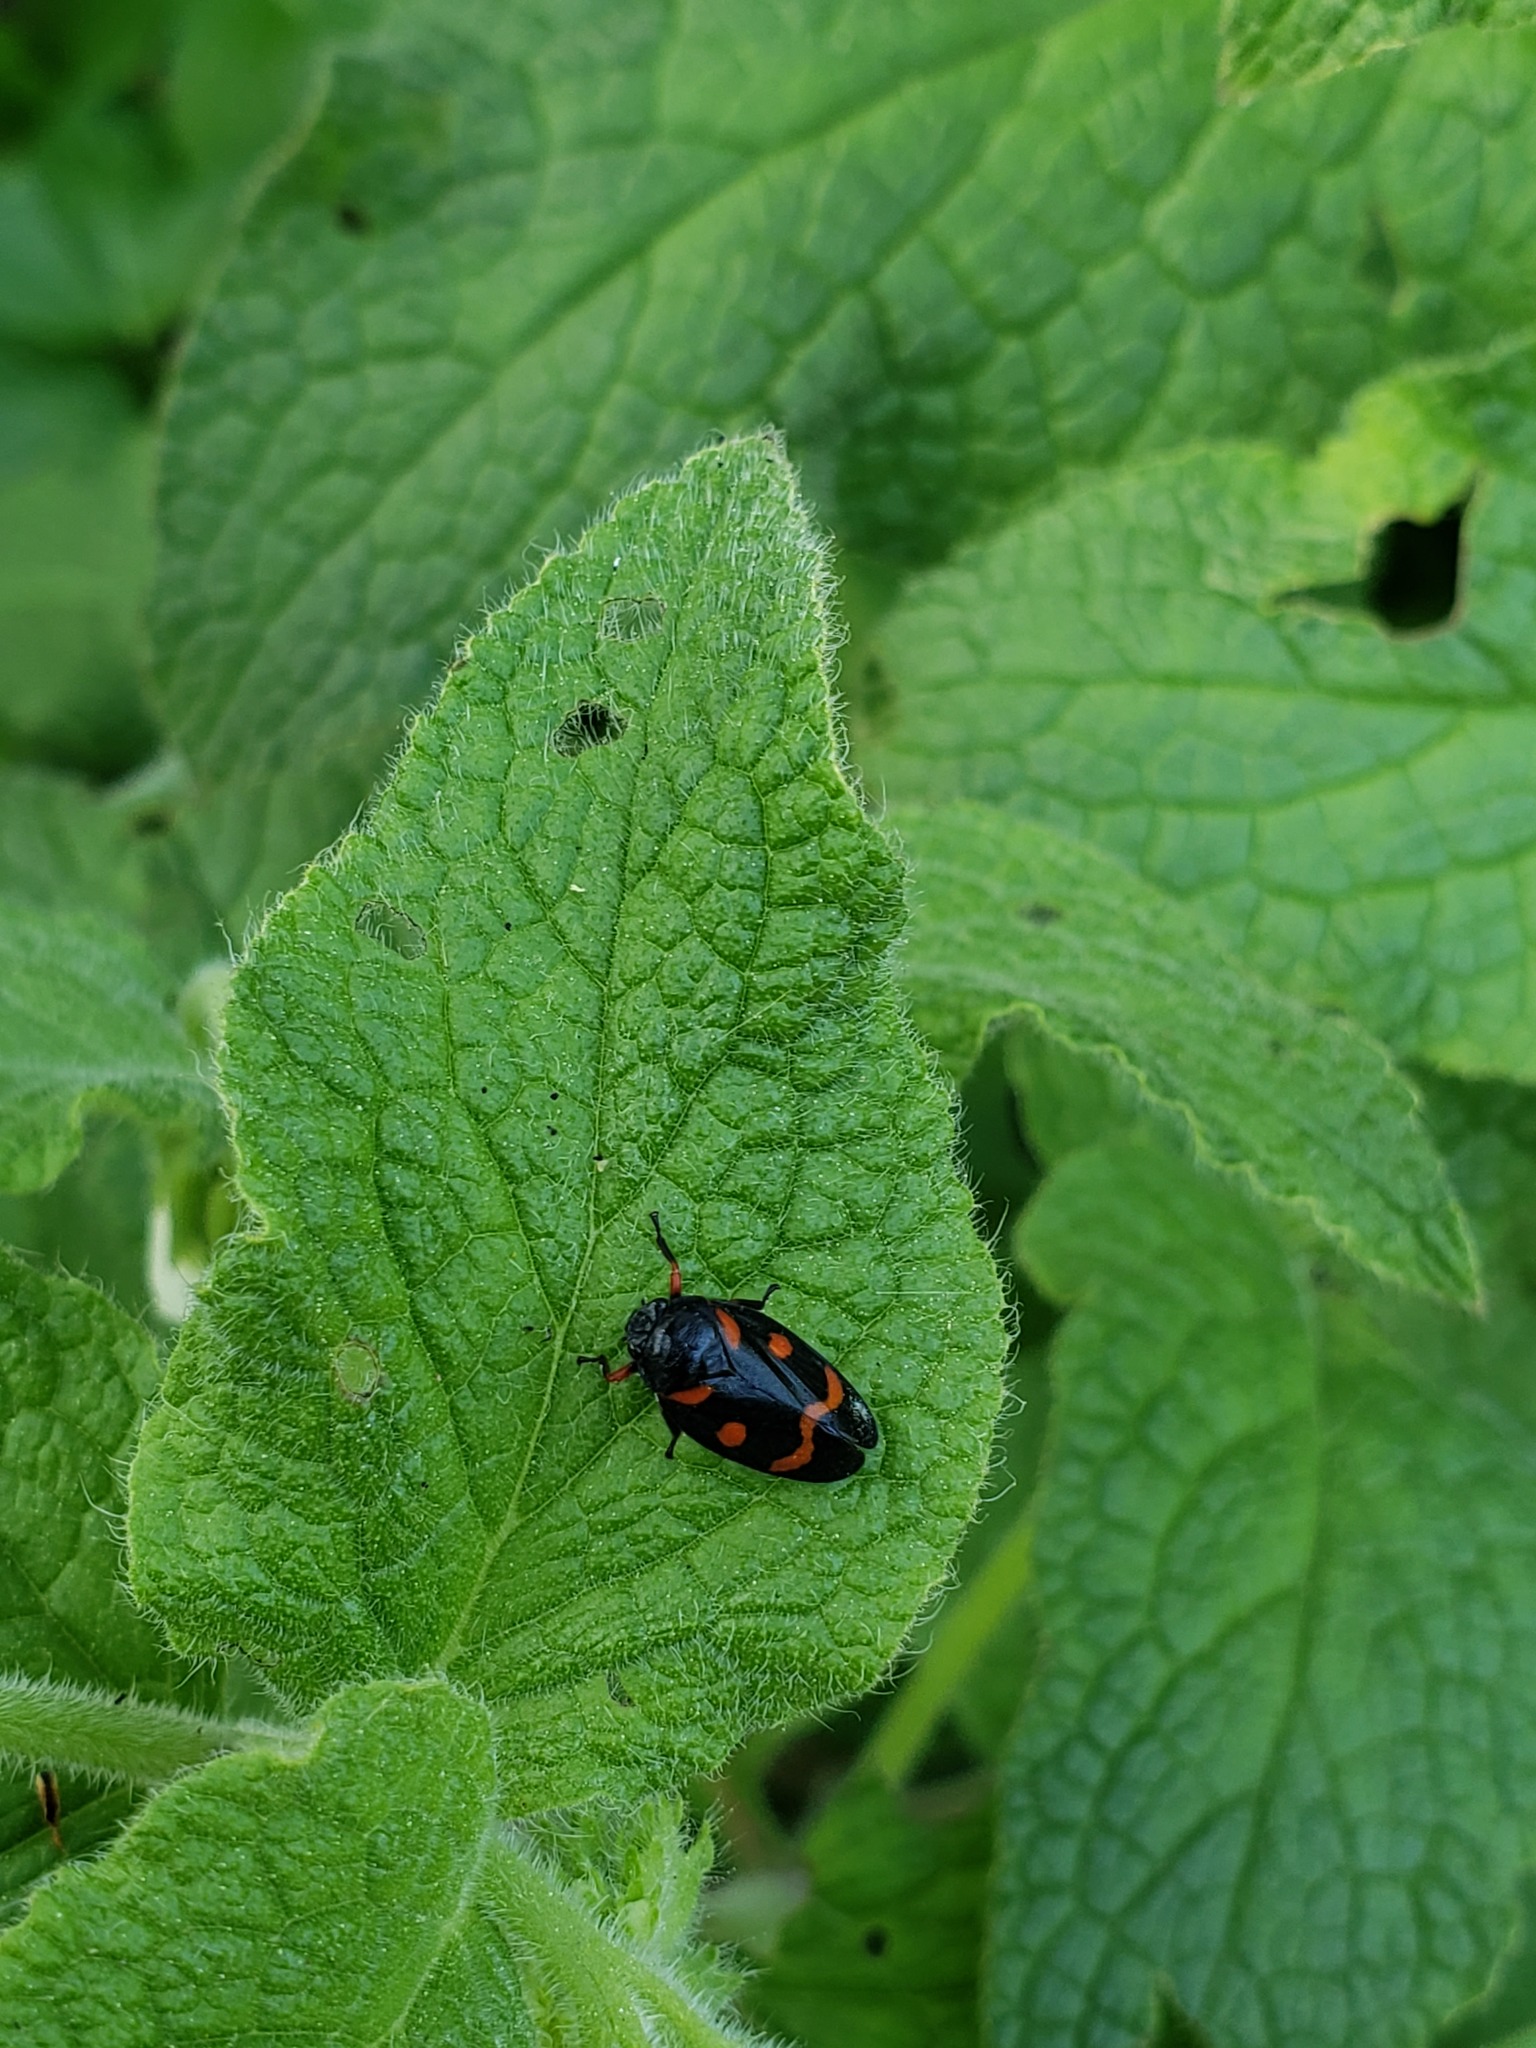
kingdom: Animalia
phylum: Arthropoda
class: Insecta
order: Hemiptera
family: Cercopidae
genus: Cercopis
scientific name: Cercopis intermedia
